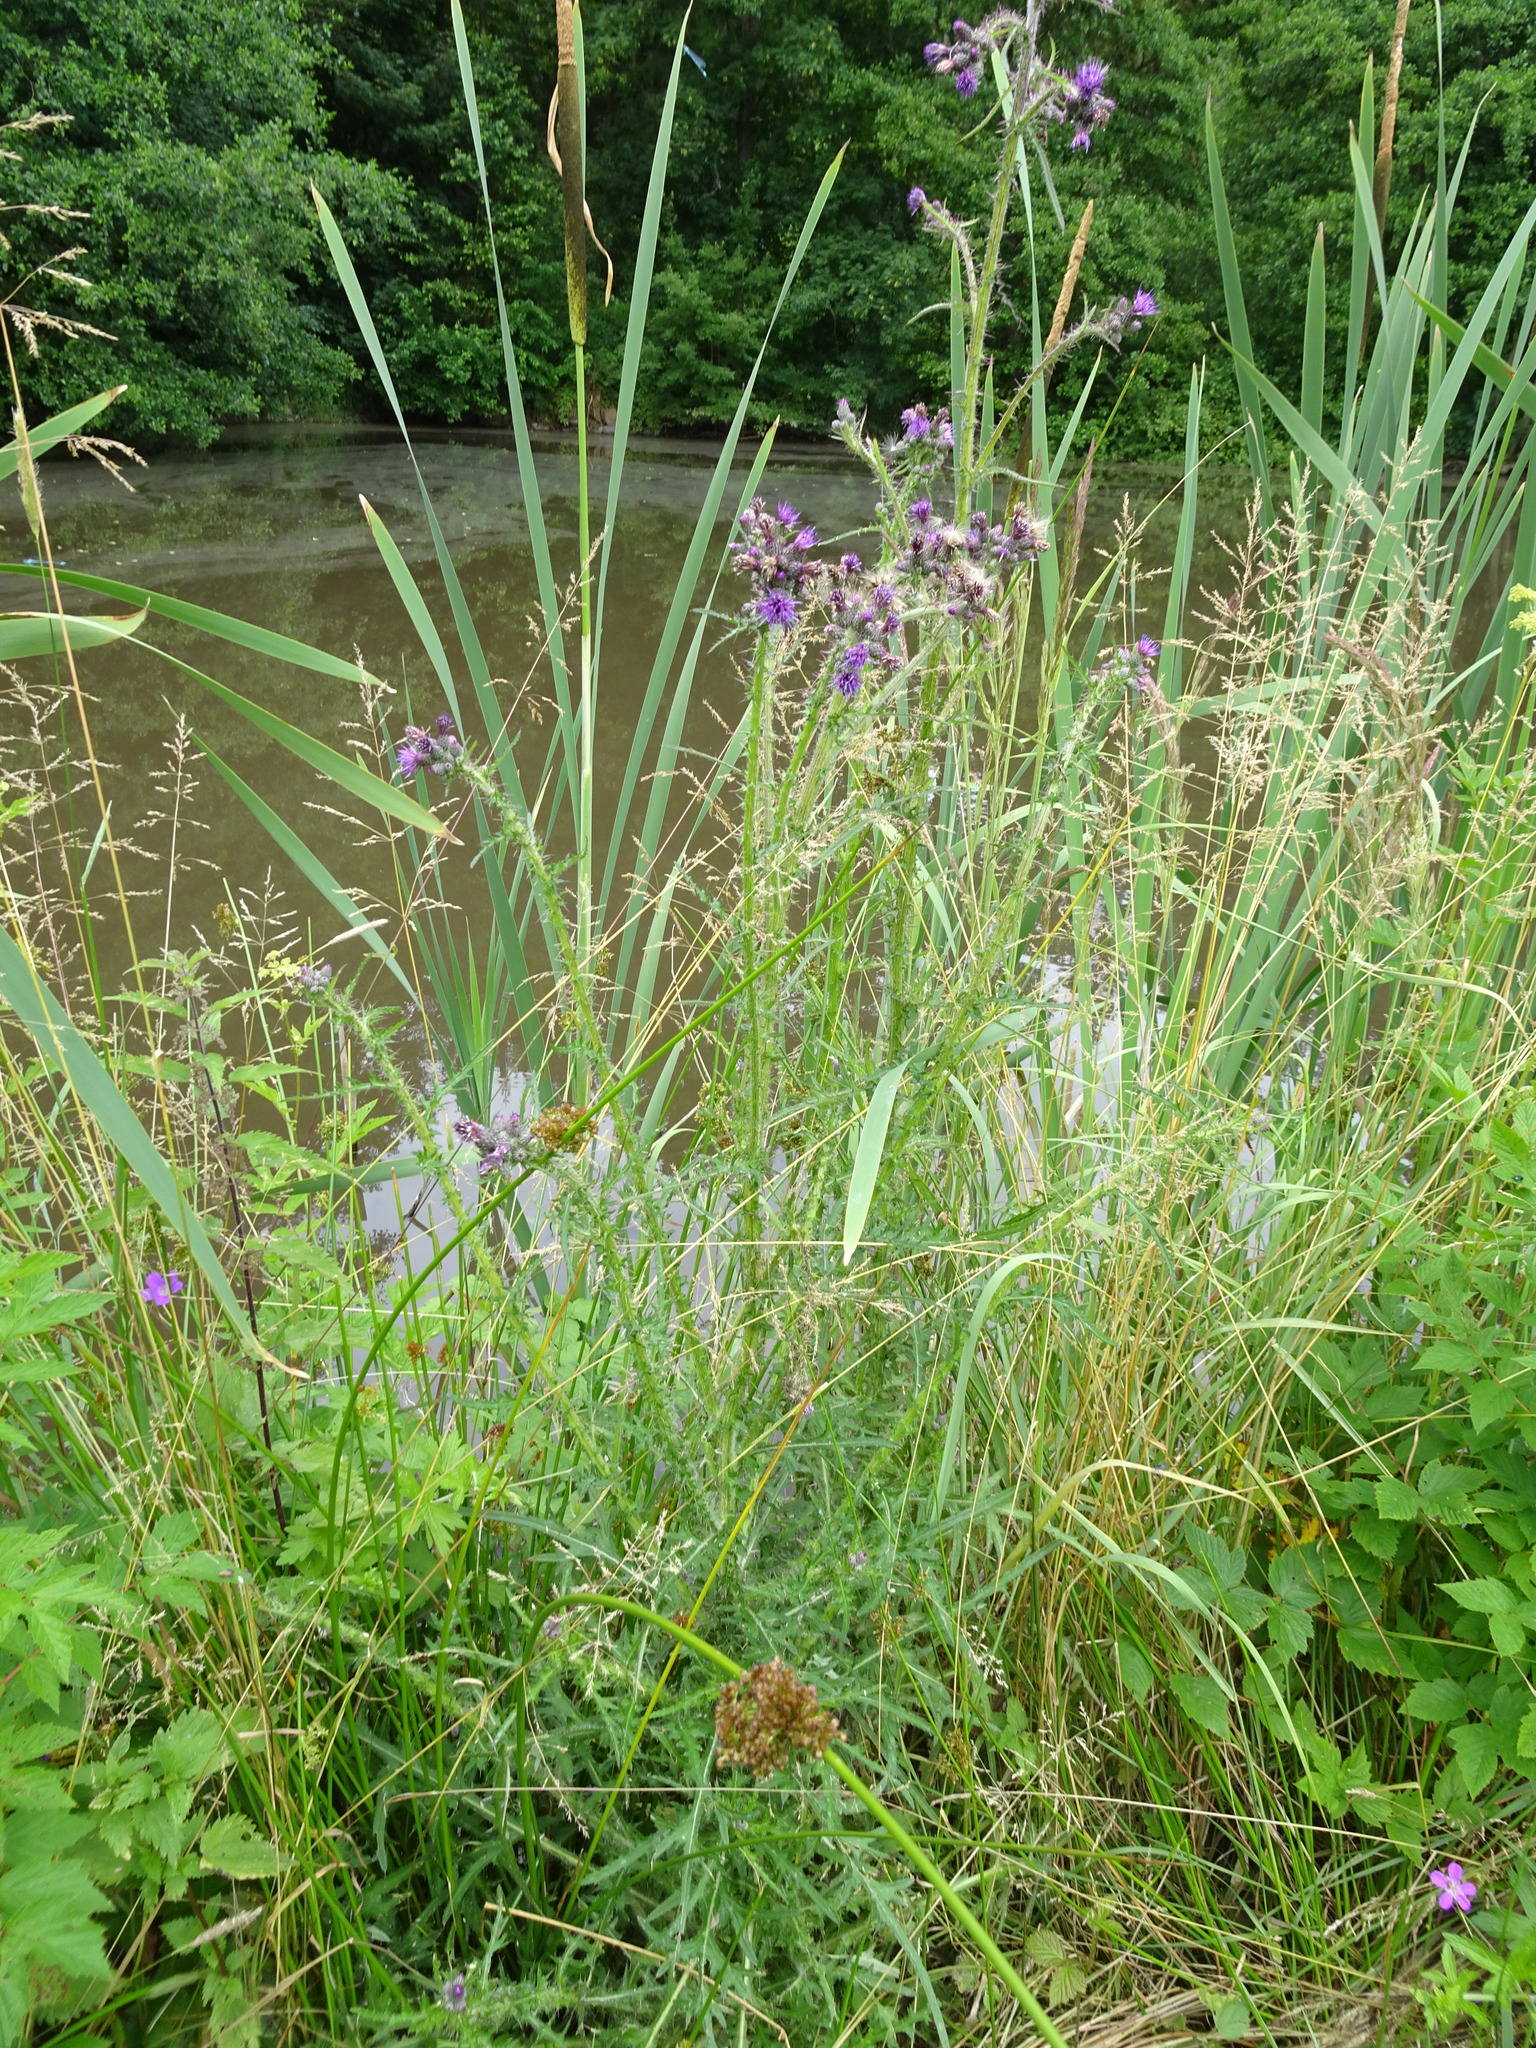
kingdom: Plantae
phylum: Tracheophyta
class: Magnoliopsida
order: Asterales
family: Asteraceae
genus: Cirsium
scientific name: Cirsium palustre
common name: Marsh thistle
